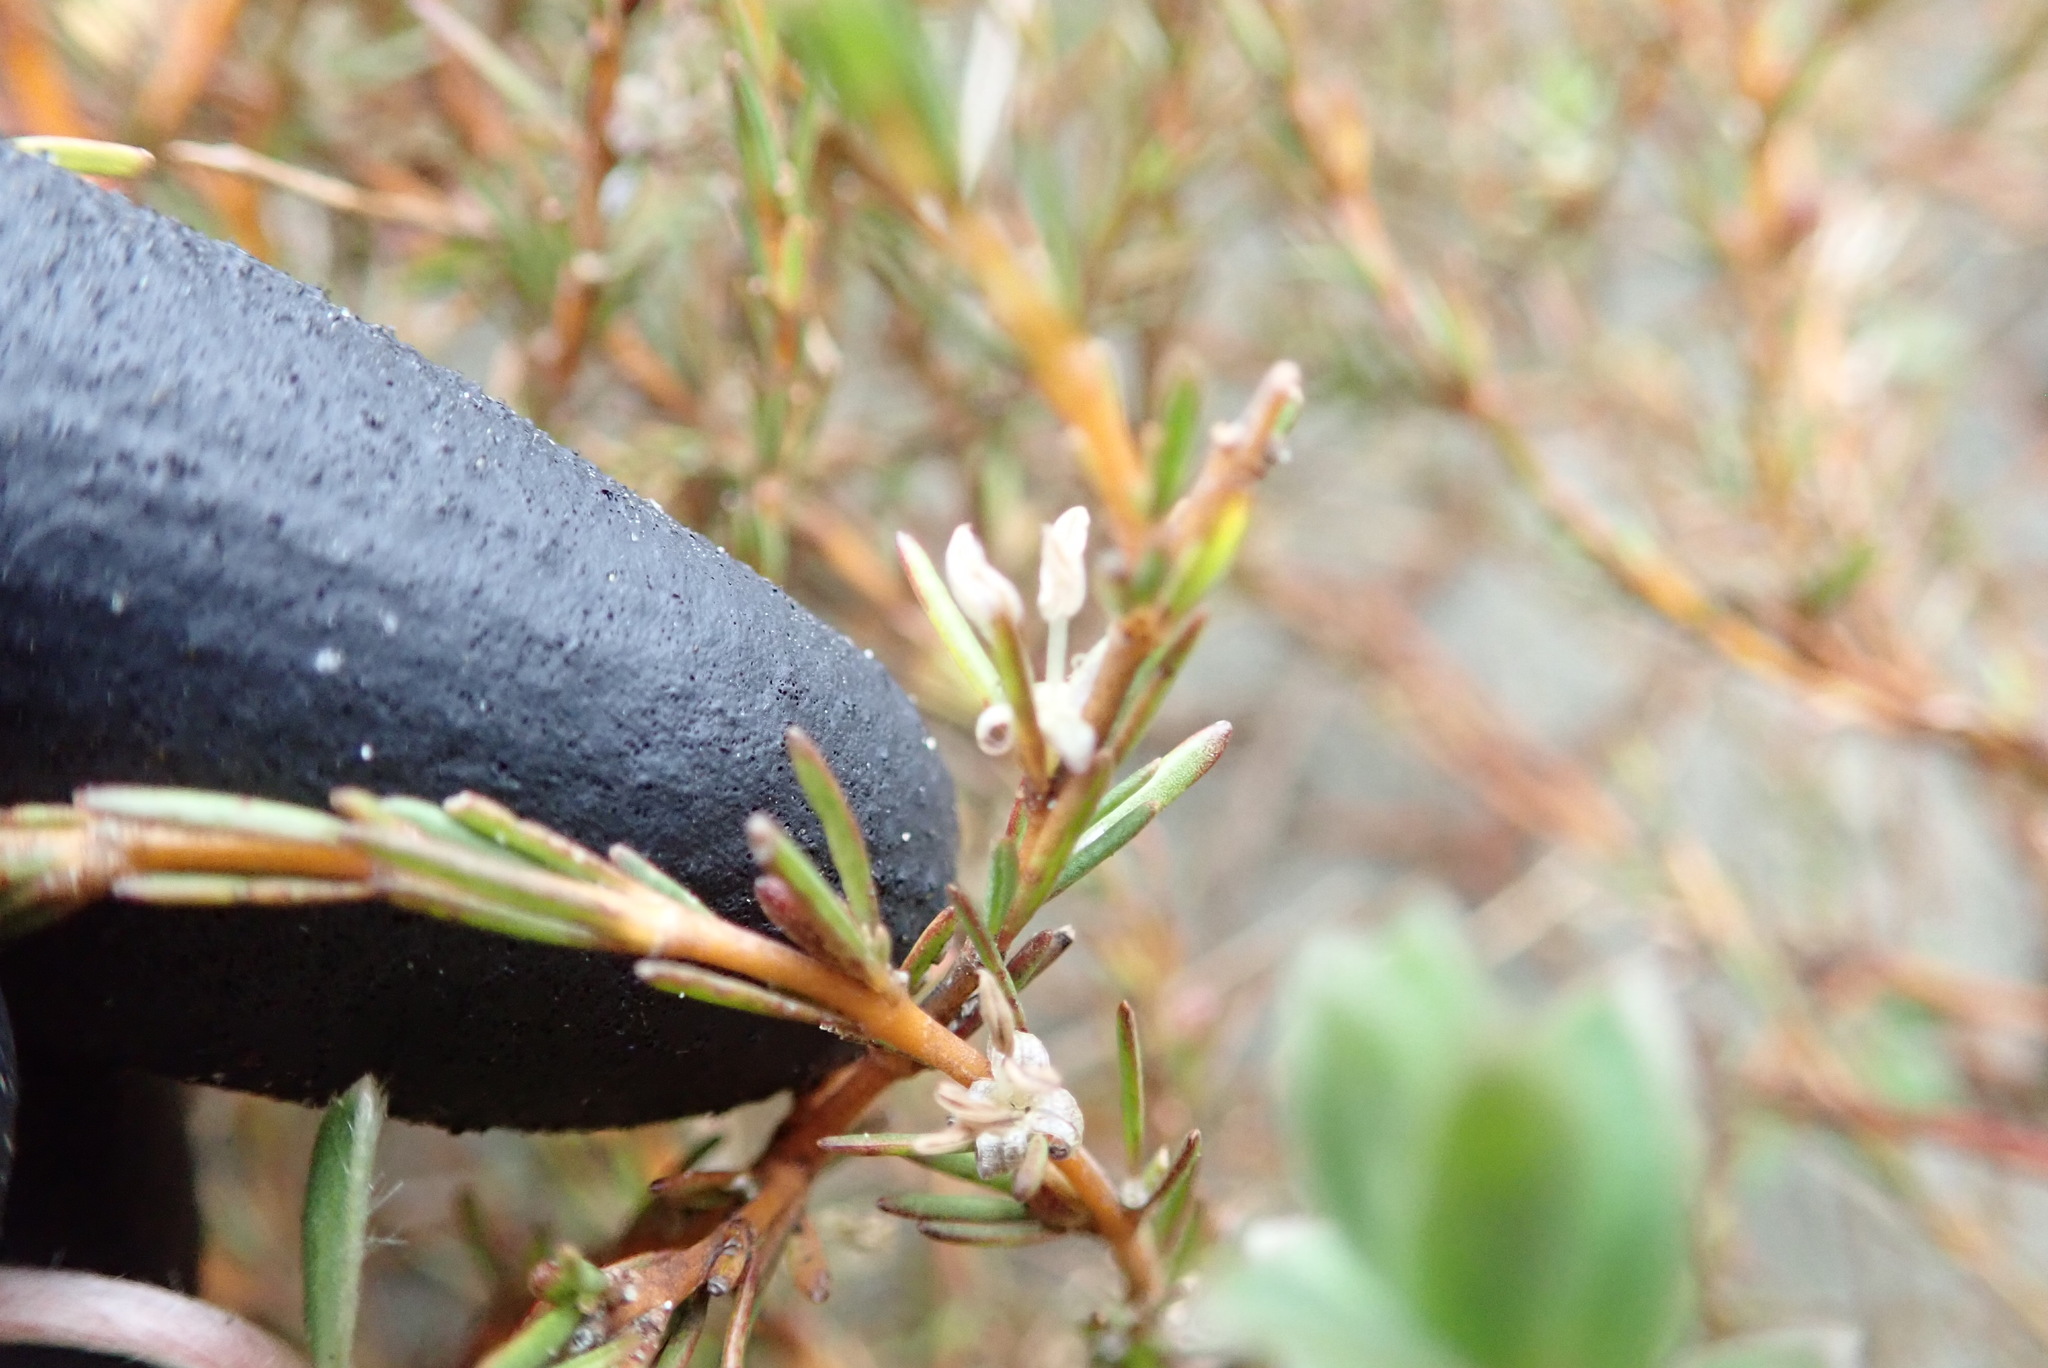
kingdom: Plantae
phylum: Tracheophyta
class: Magnoliopsida
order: Gentianales
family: Rubiaceae
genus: Coprosma
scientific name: Coprosma acerosa
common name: Sand coprosma
